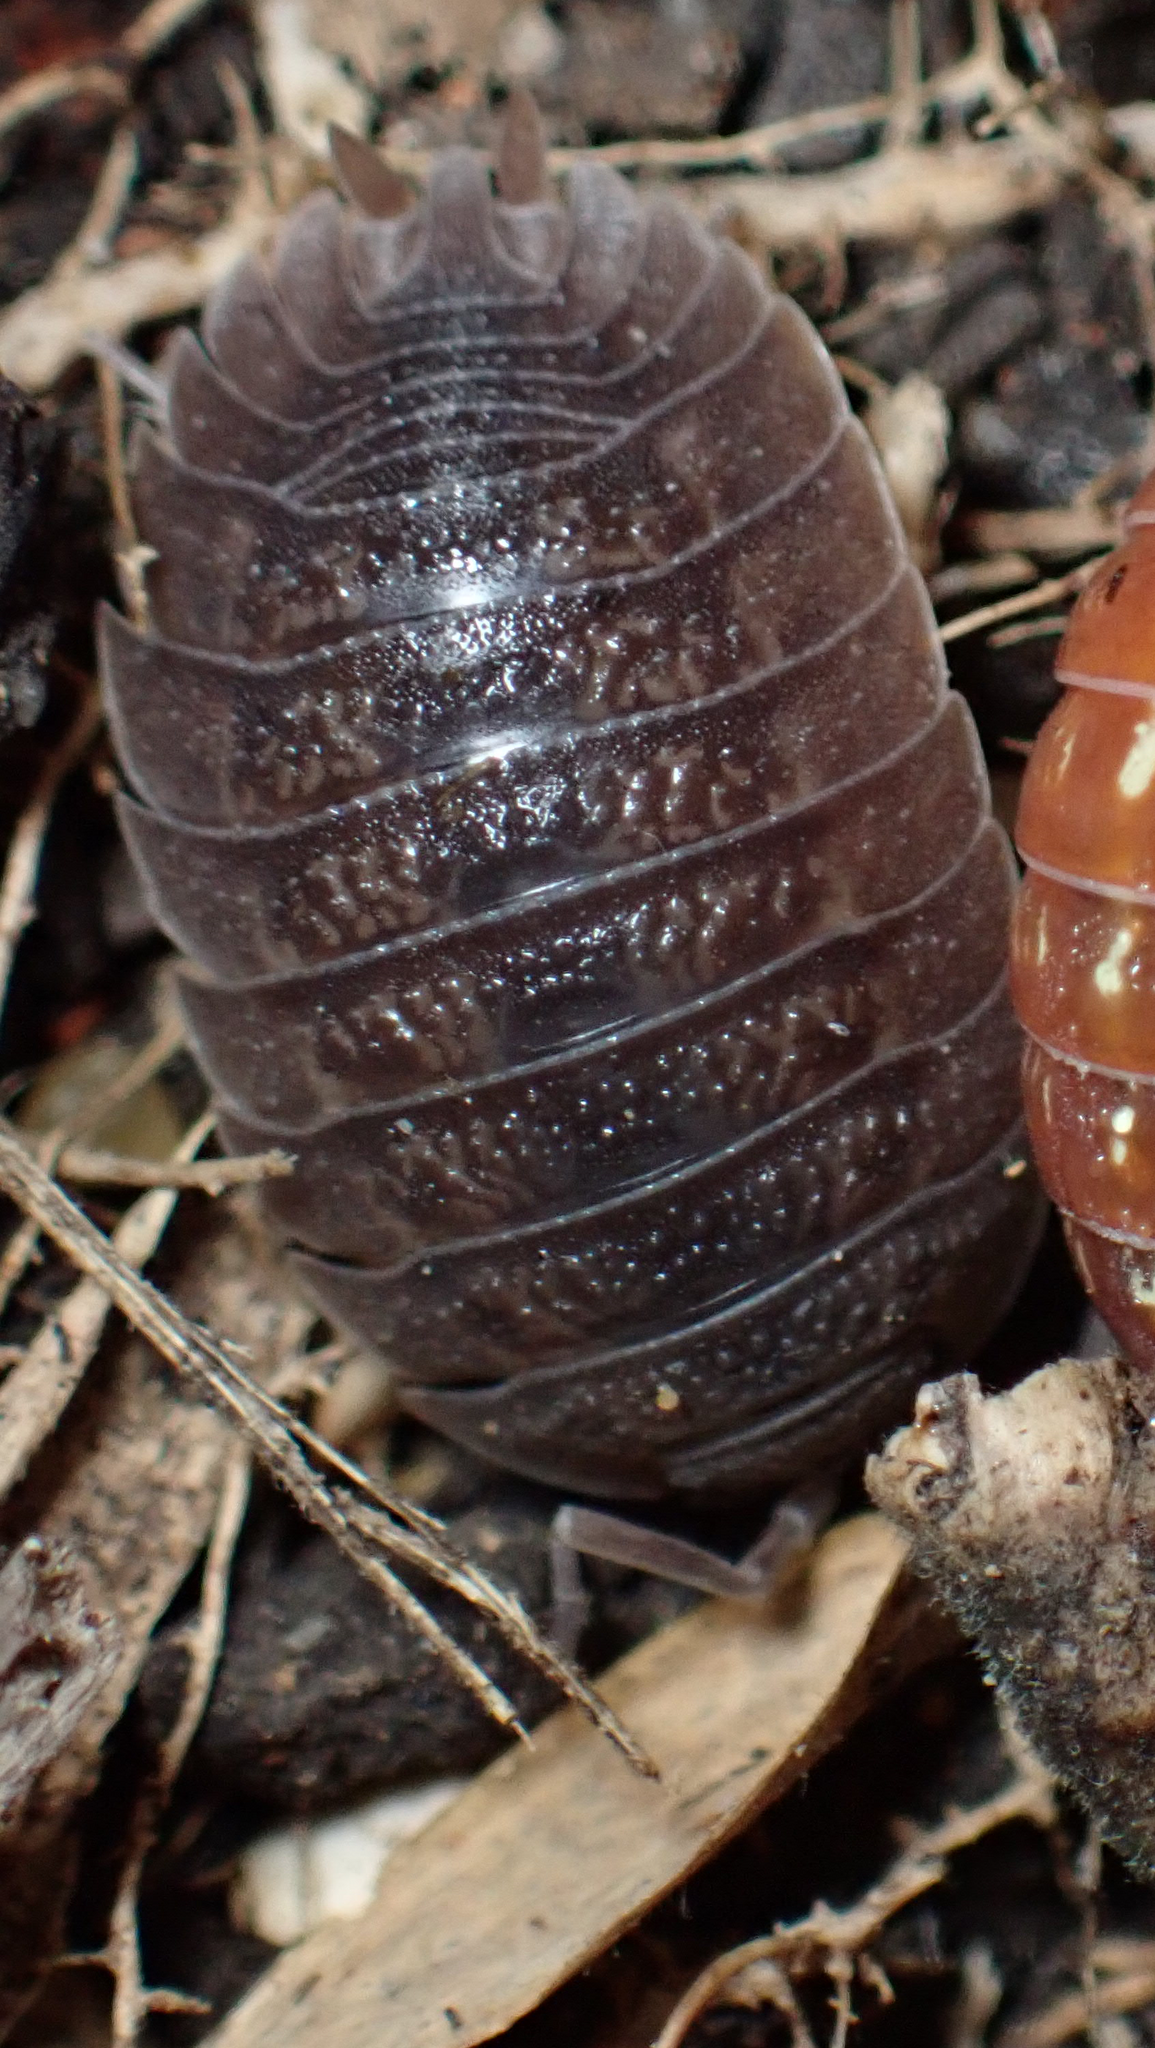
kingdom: Animalia
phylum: Arthropoda
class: Malacostraca
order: Isopoda
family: Porcellionidae
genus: Porcellio
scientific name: Porcellio dilatatus
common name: Isopod
